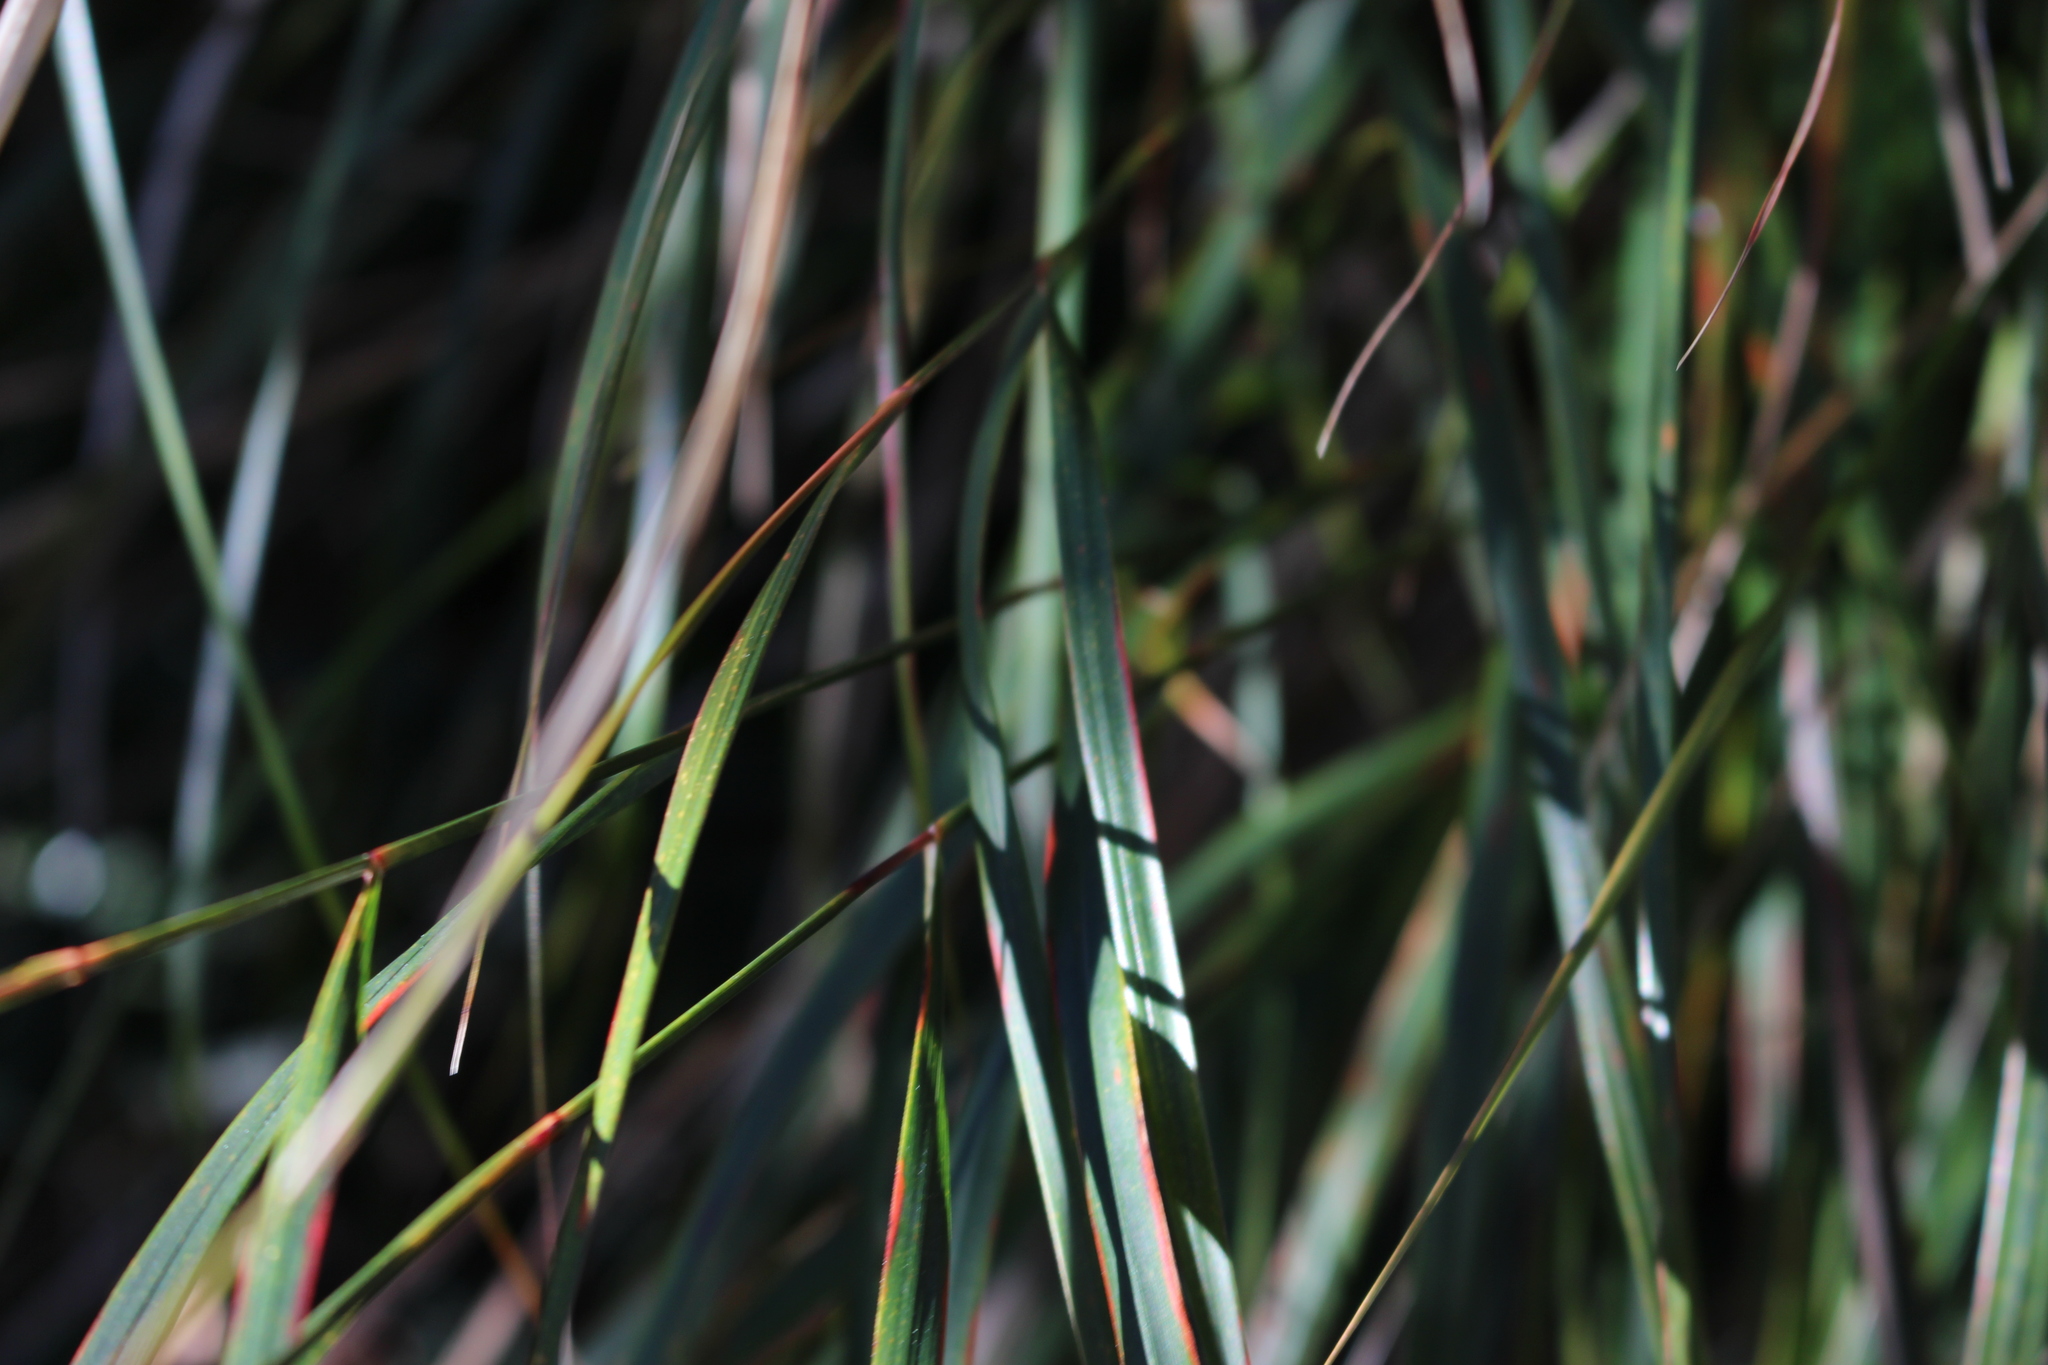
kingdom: Plantae
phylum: Tracheophyta
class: Liliopsida
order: Poales
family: Poaceae
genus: Anemanthele
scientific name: Anemanthele lessoniana
